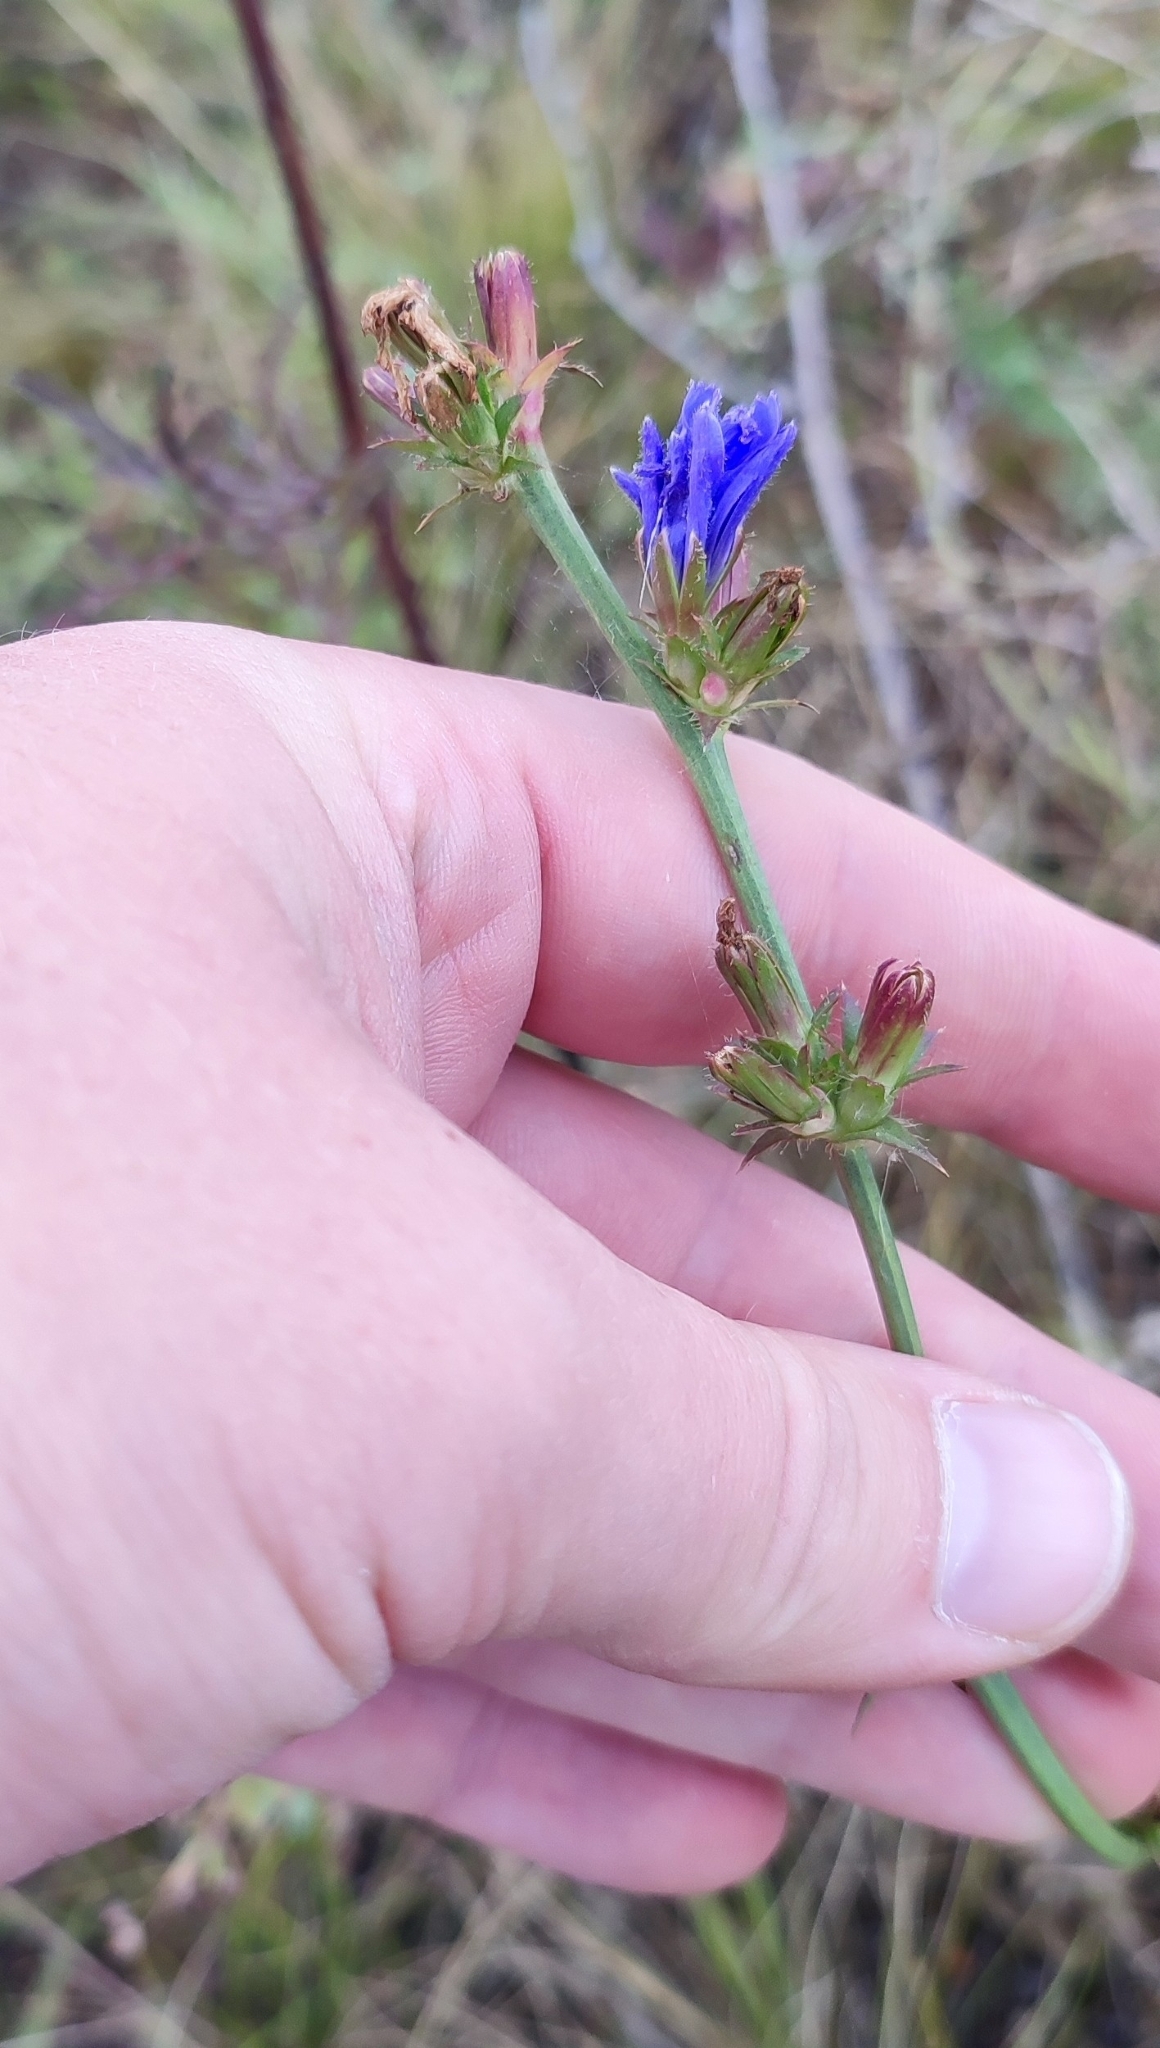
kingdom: Plantae
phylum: Tracheophyta
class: Magnoliopsida
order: Asterales
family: Asteraceae
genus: Cichorium
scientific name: Cichorium intybus
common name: Chicory
